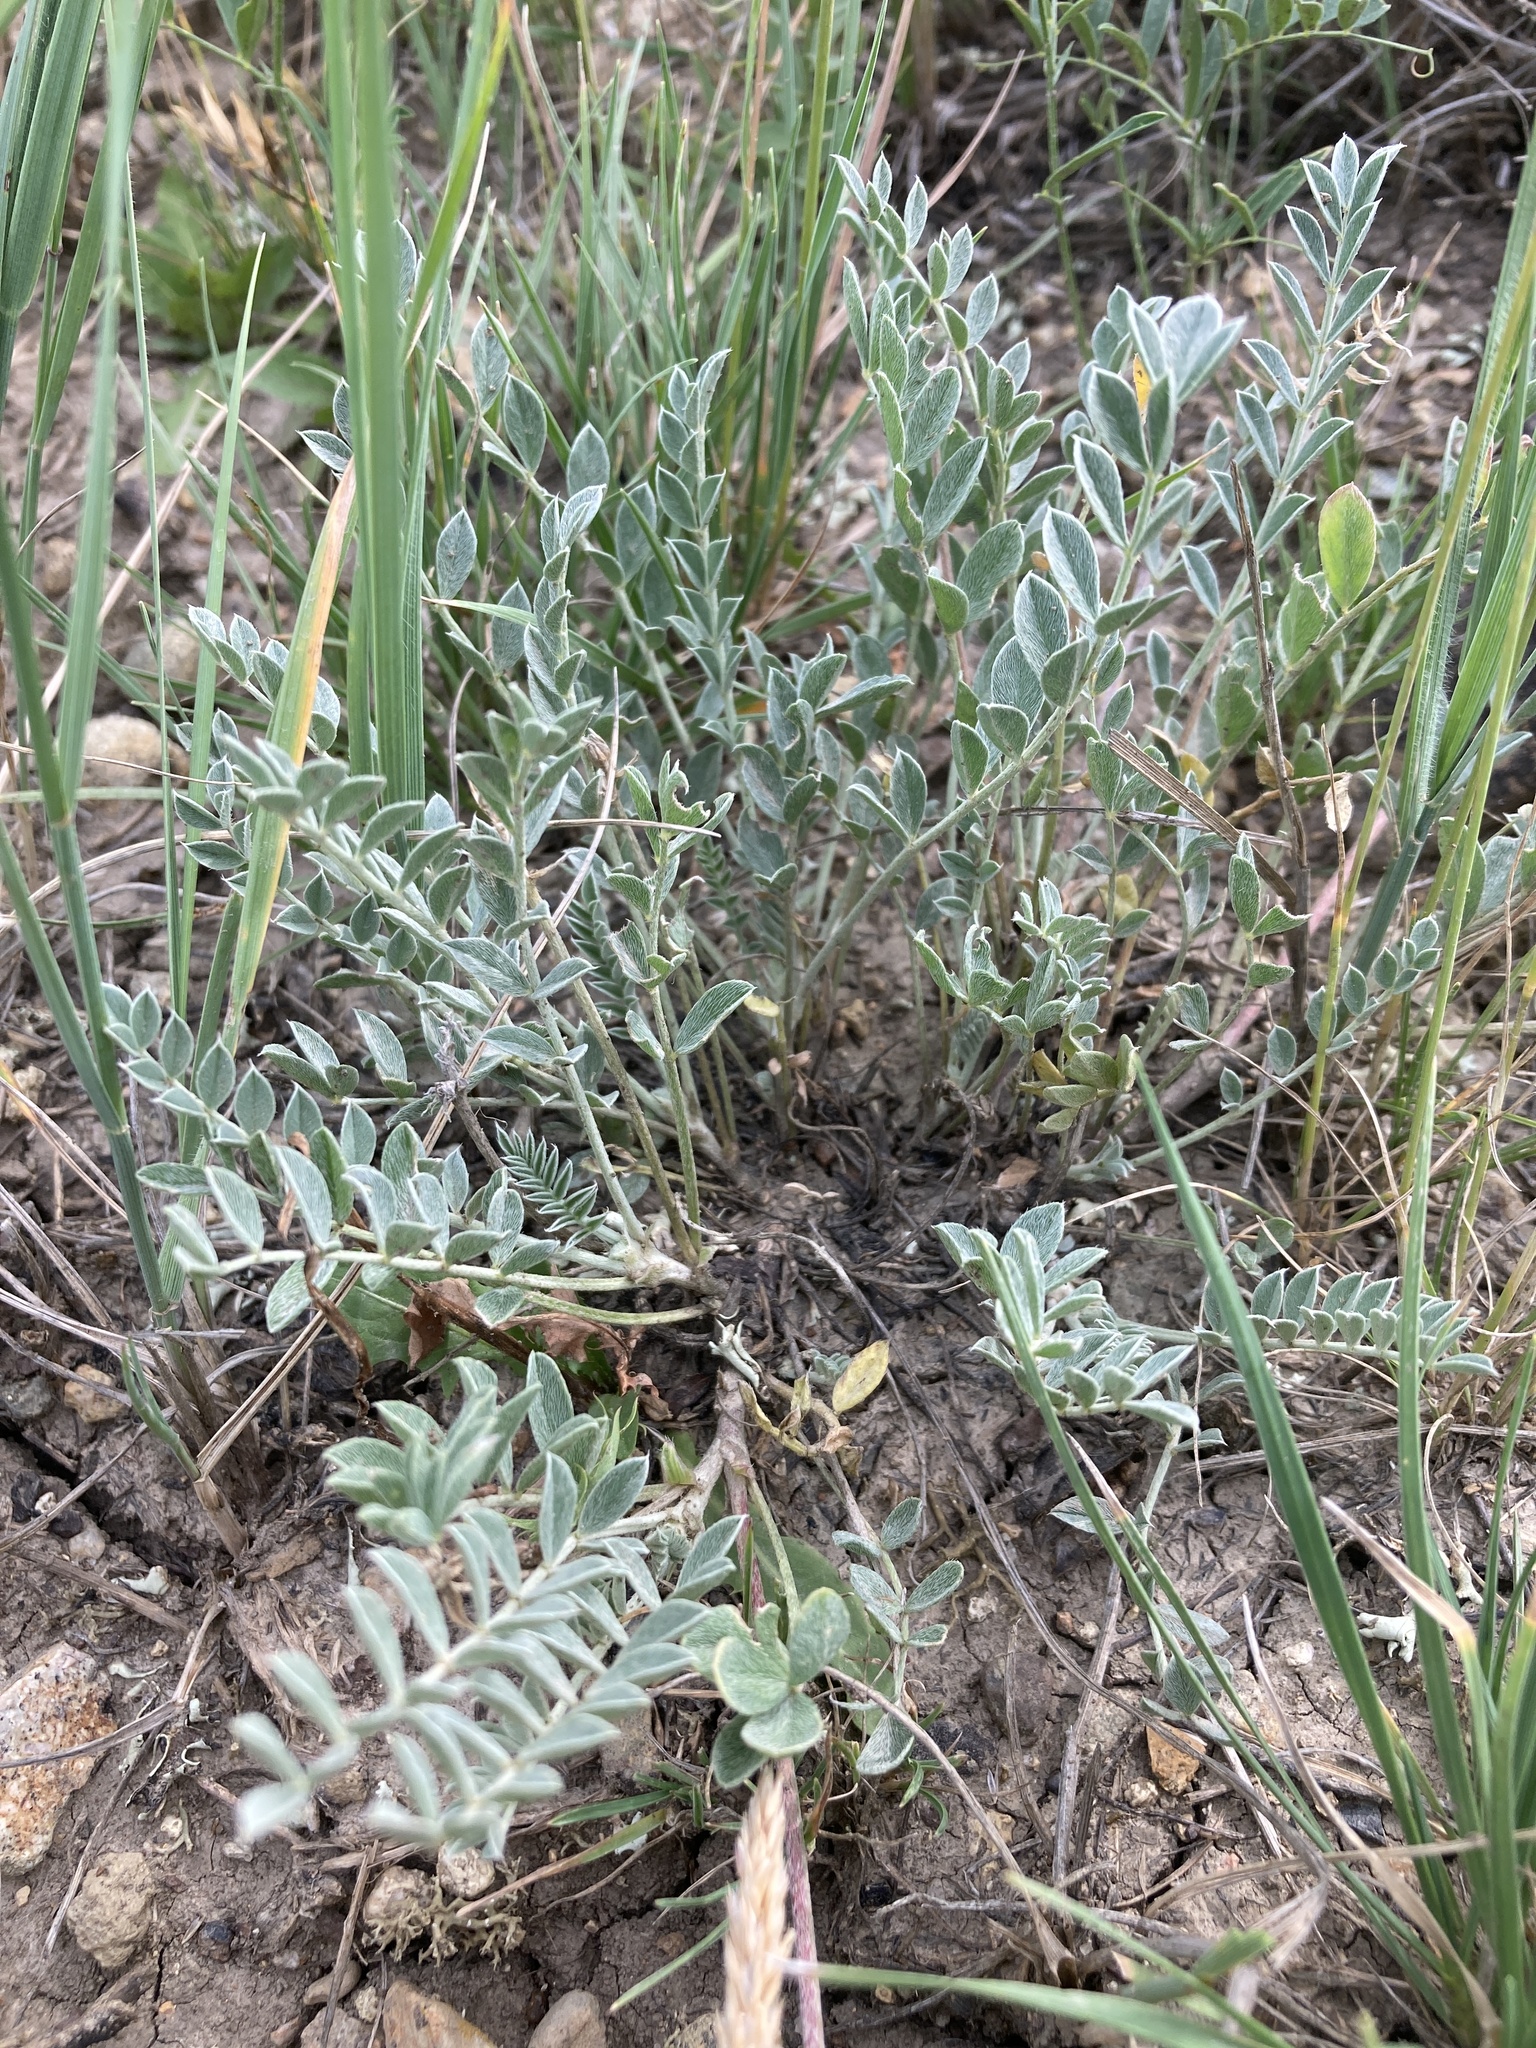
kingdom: Plantae
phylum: Tracheophyta
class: Magnoliopsida
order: Fabales
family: Fabaceae
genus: Astragalus
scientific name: Astragalus missouriensis
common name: Missouri milk-vetch
